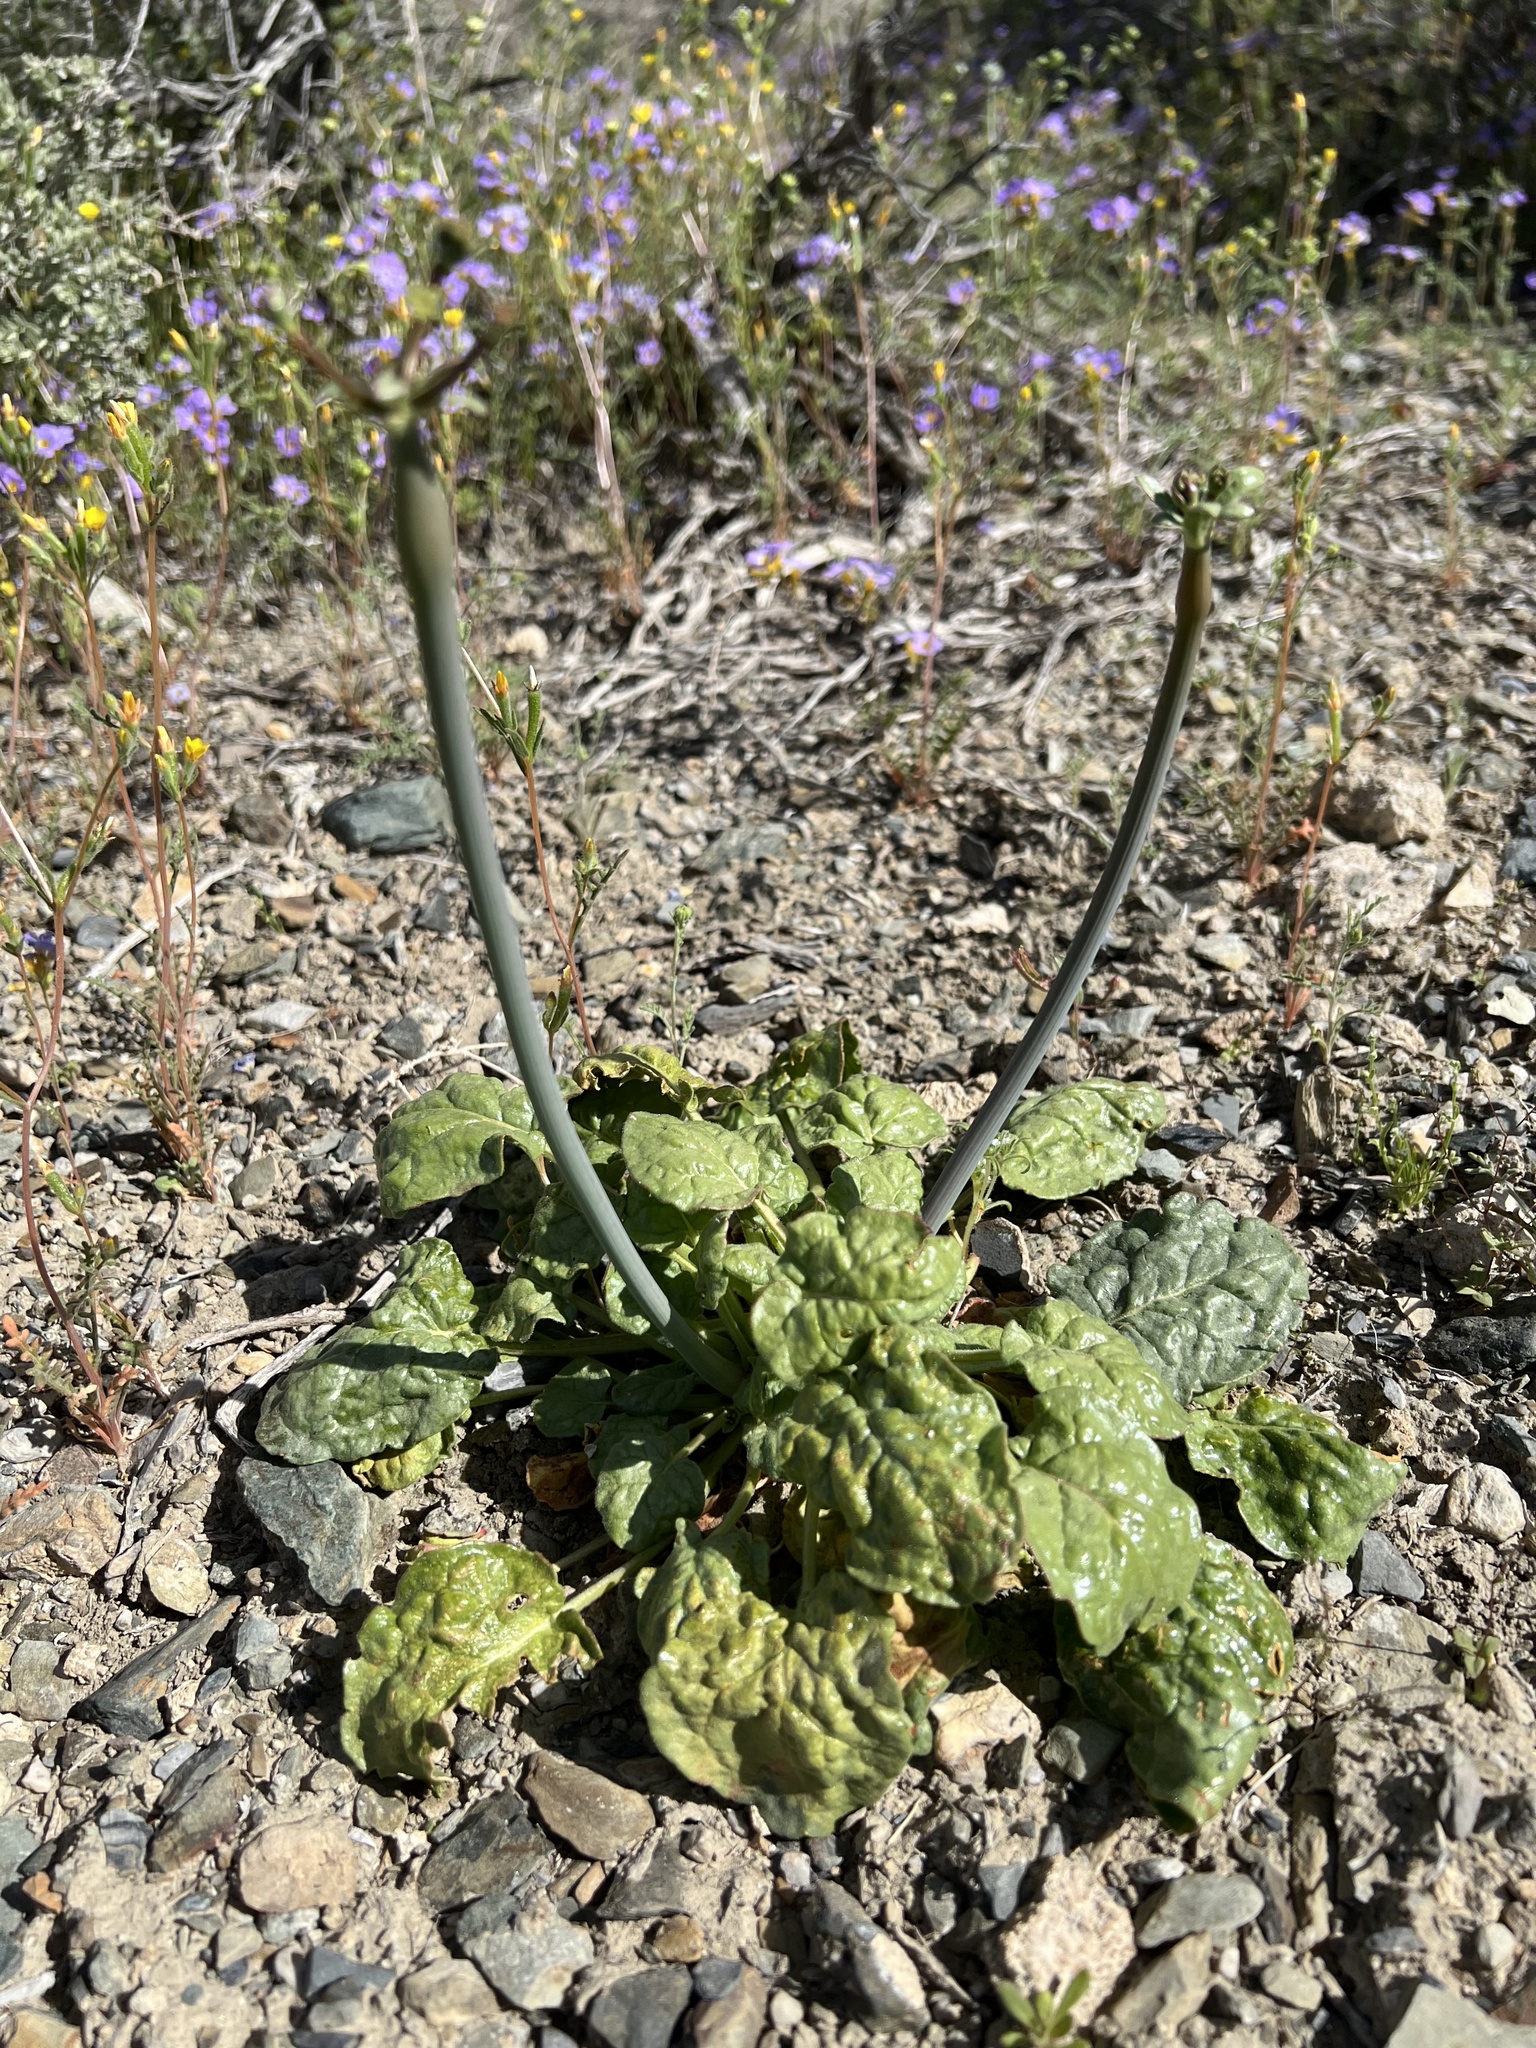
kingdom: Plantae
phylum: Tracheophyta
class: Magnoliopsida
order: Caryophyllales
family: Polygonaceae
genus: Eriogonum
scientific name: Eriogonum inflatum
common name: Desert trumpet
